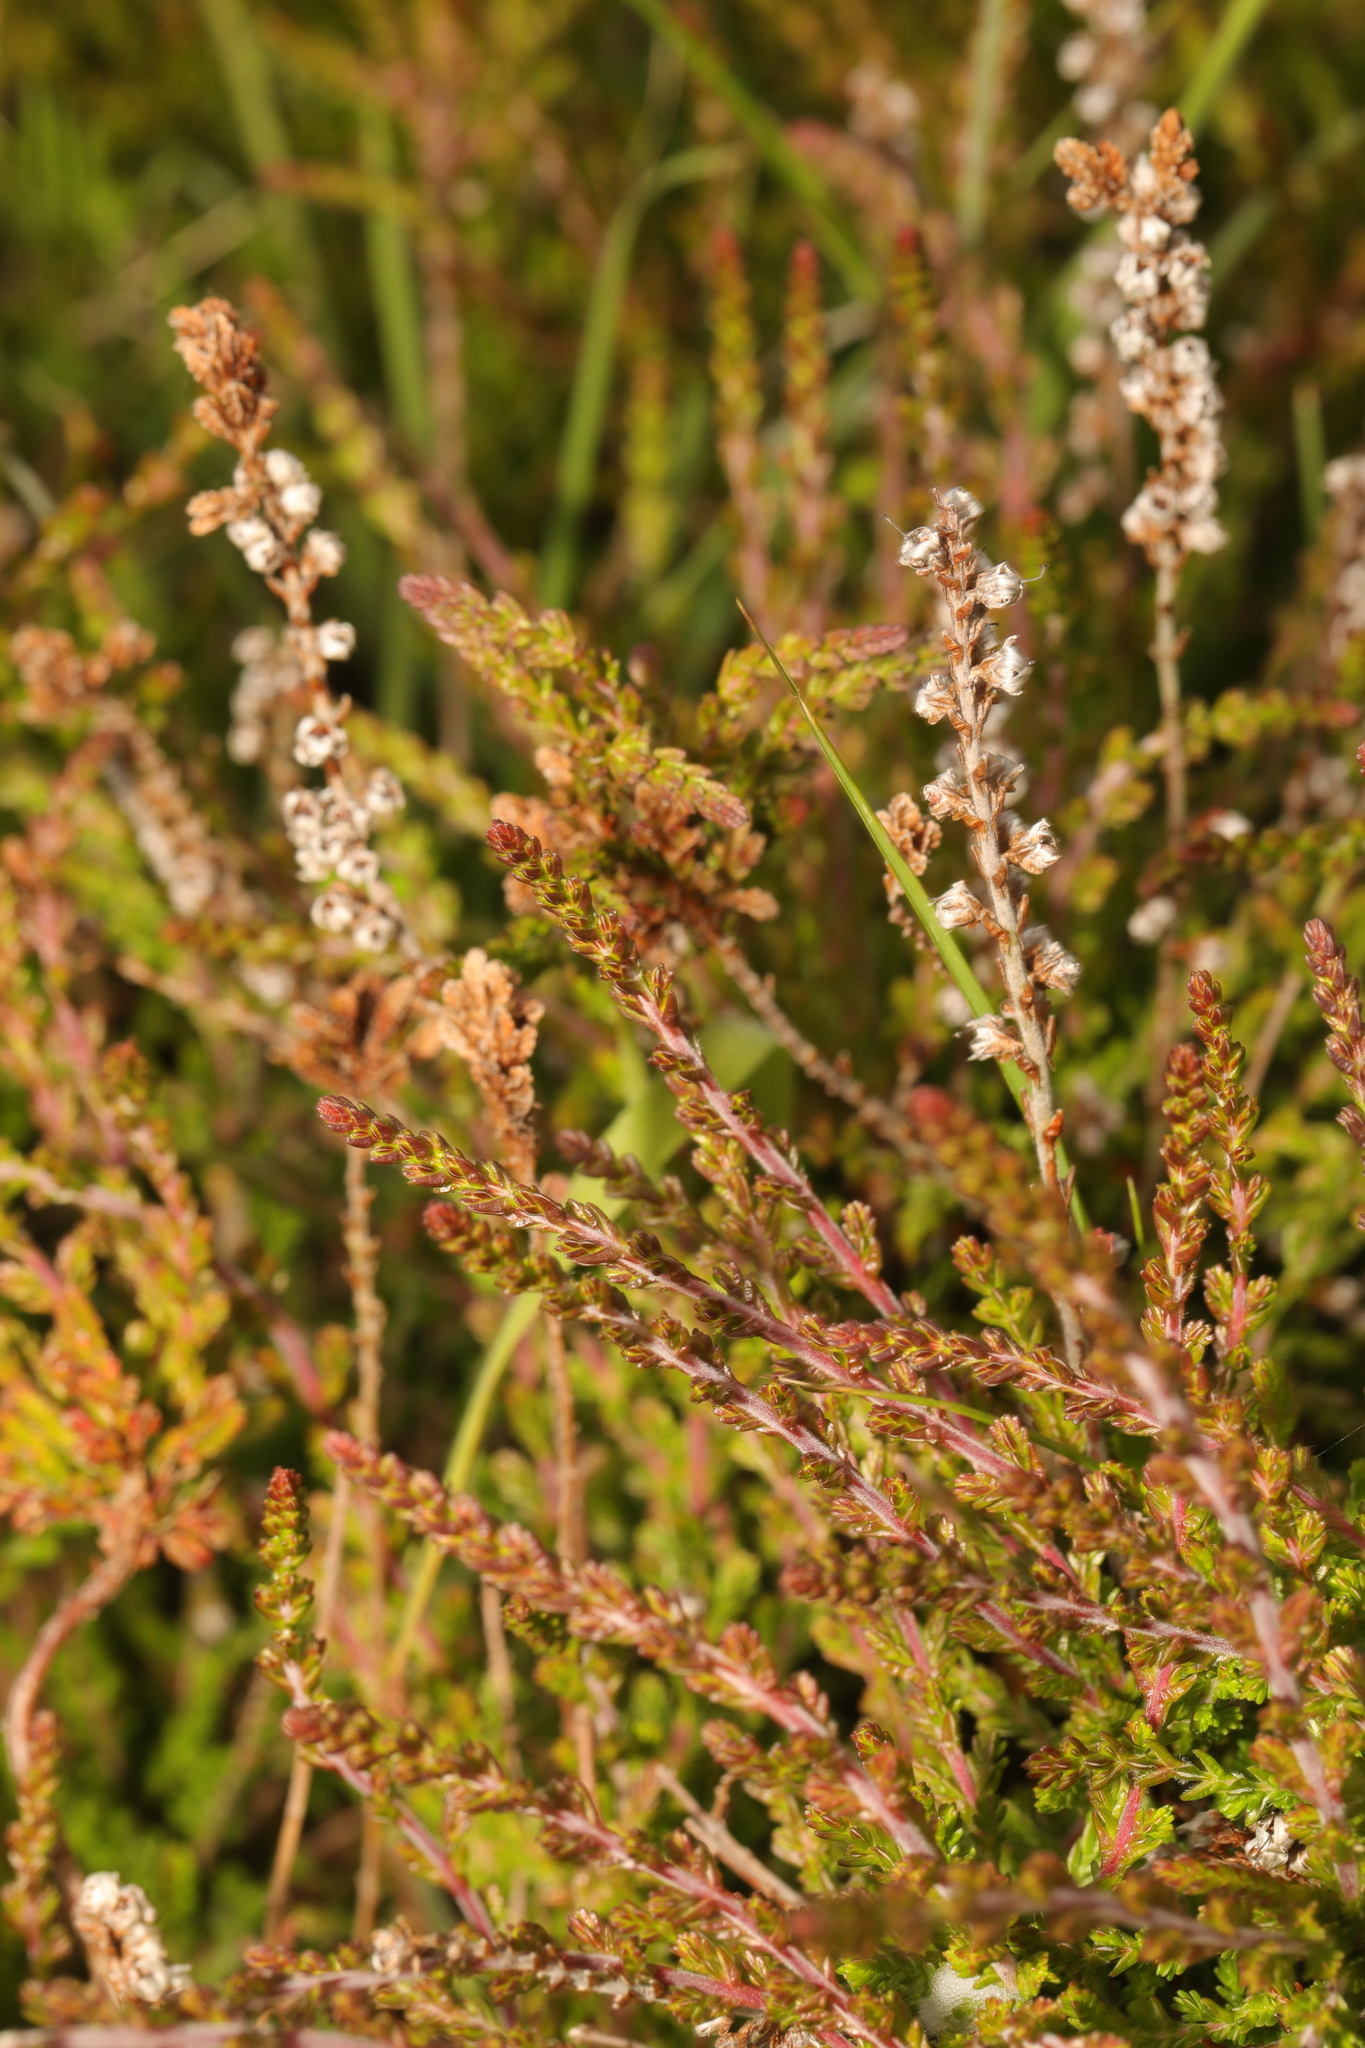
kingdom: Plantae
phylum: Tracheophyta
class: Magnoliopsida
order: Ericales
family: Ericaceae
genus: Calluna
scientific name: Calluna vulgaris
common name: Heather
